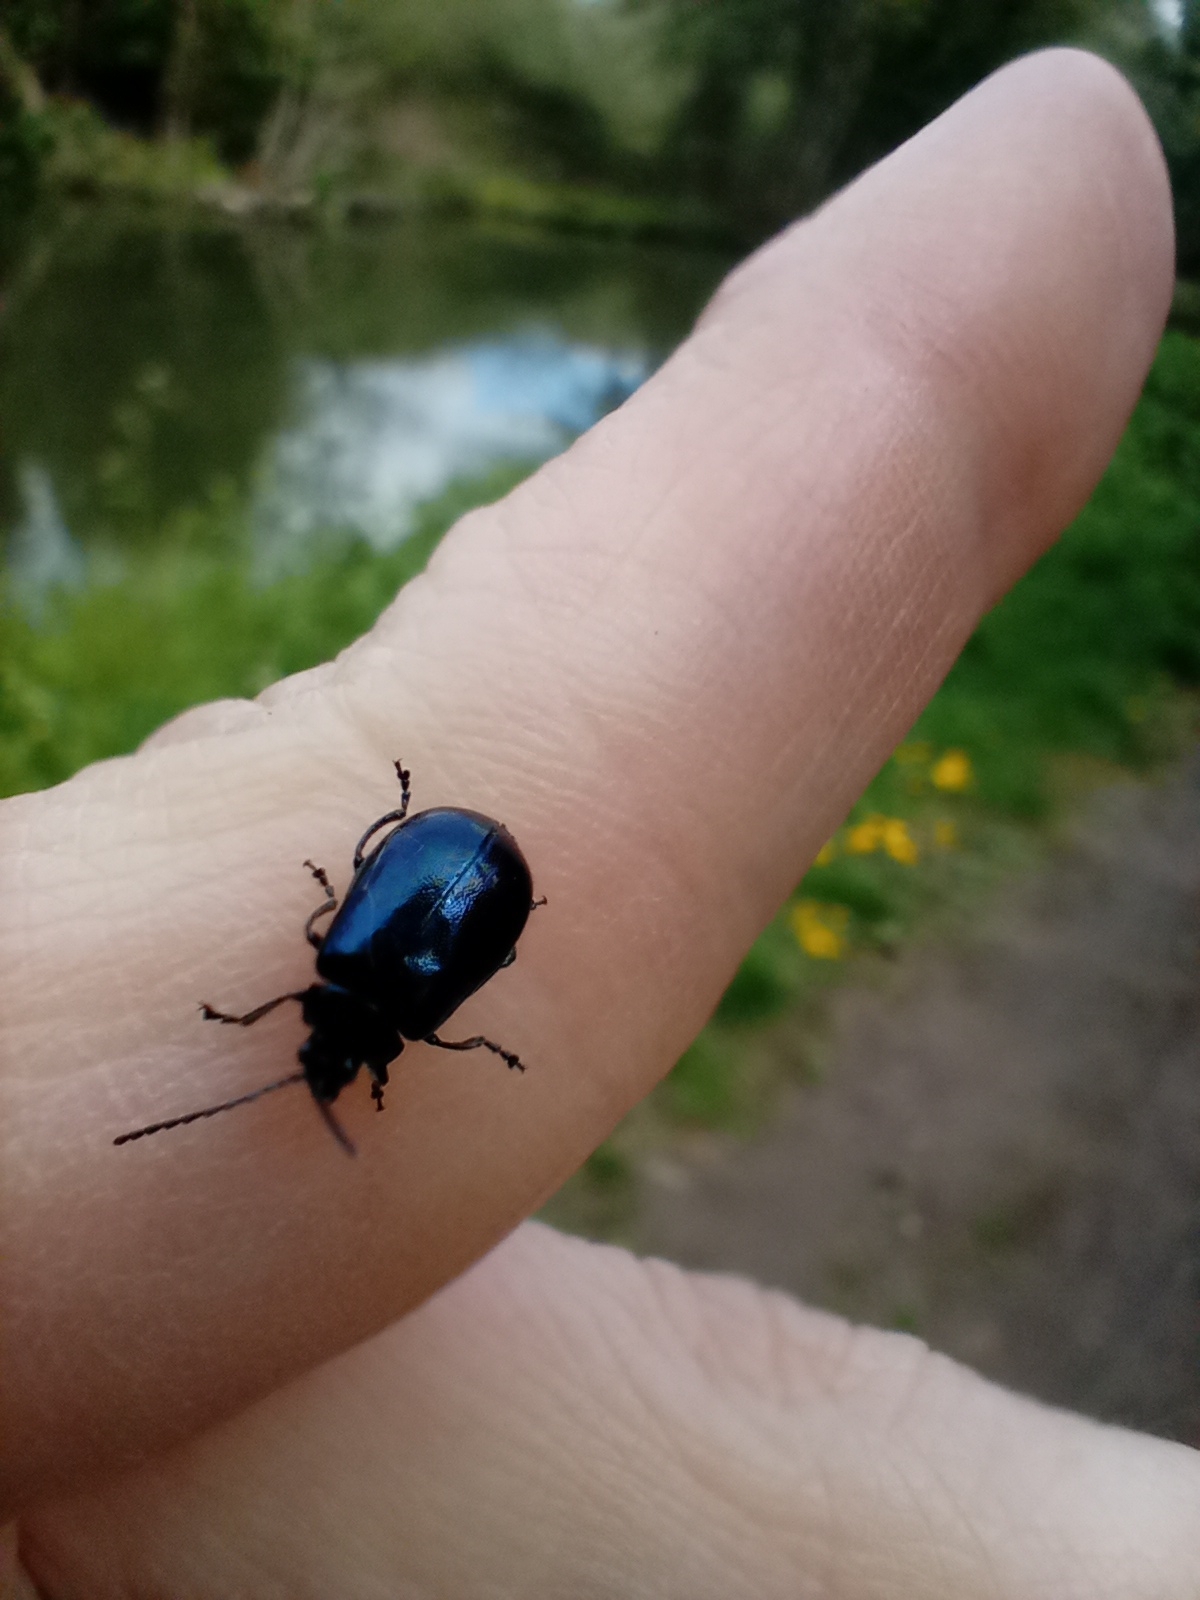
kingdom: Animalia
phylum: Arthropoda
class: Insecta
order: Coleoptera
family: Chrysomelidae
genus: Agelastica
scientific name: Agelastica alni
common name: Alder leaf beetle
